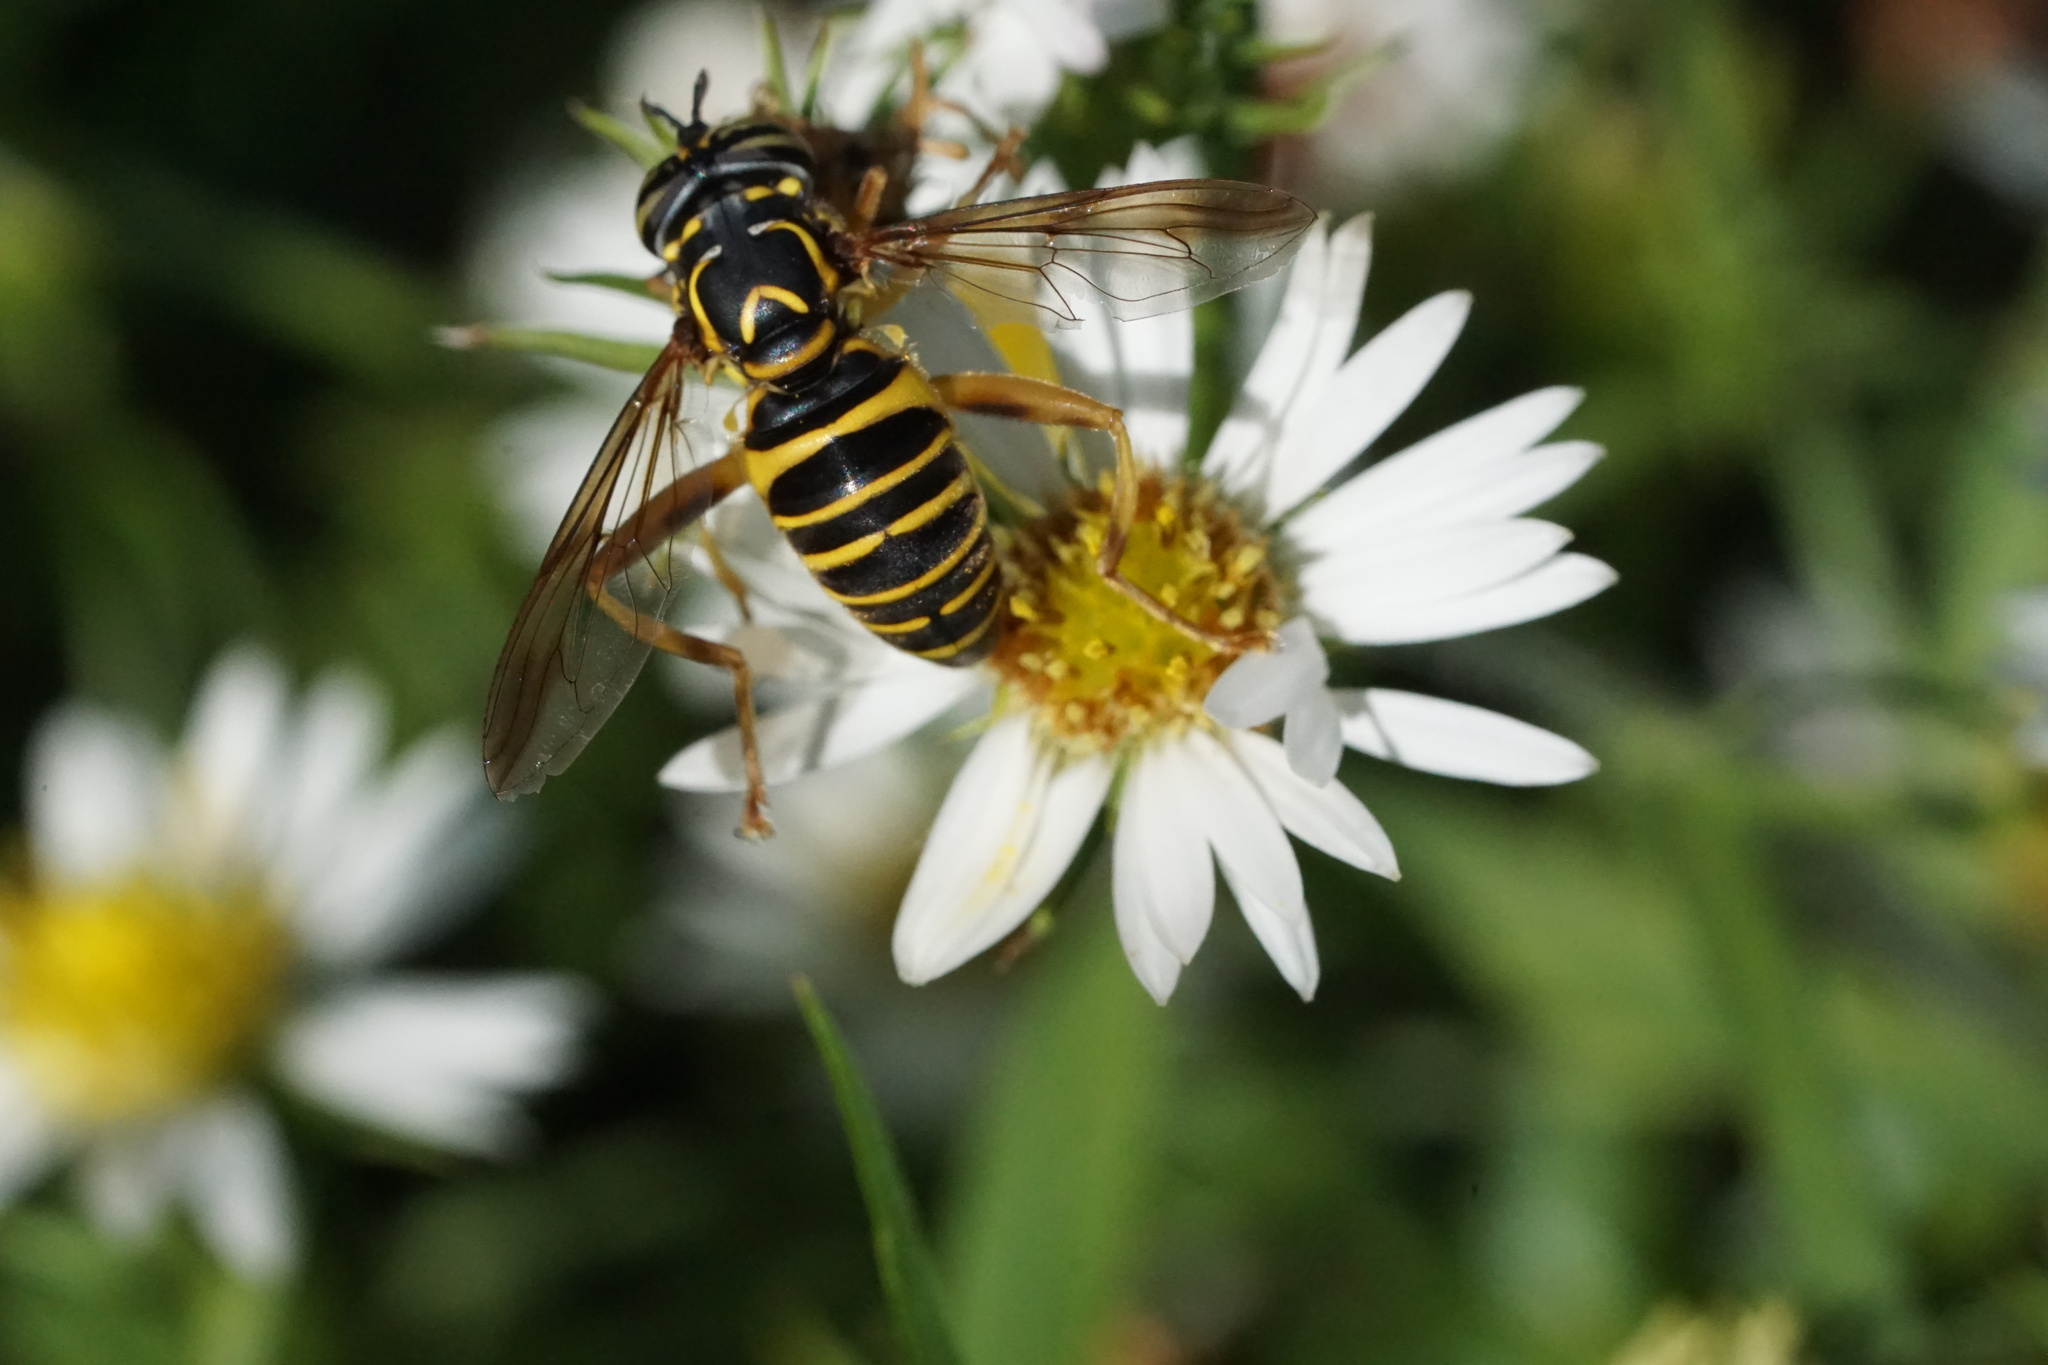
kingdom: Animalia
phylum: Arthropoda
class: Insecta
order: Diptera
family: Syrphidae
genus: Spilomyia
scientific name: Spilomyia longicornis
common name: Eastern hornet fly
